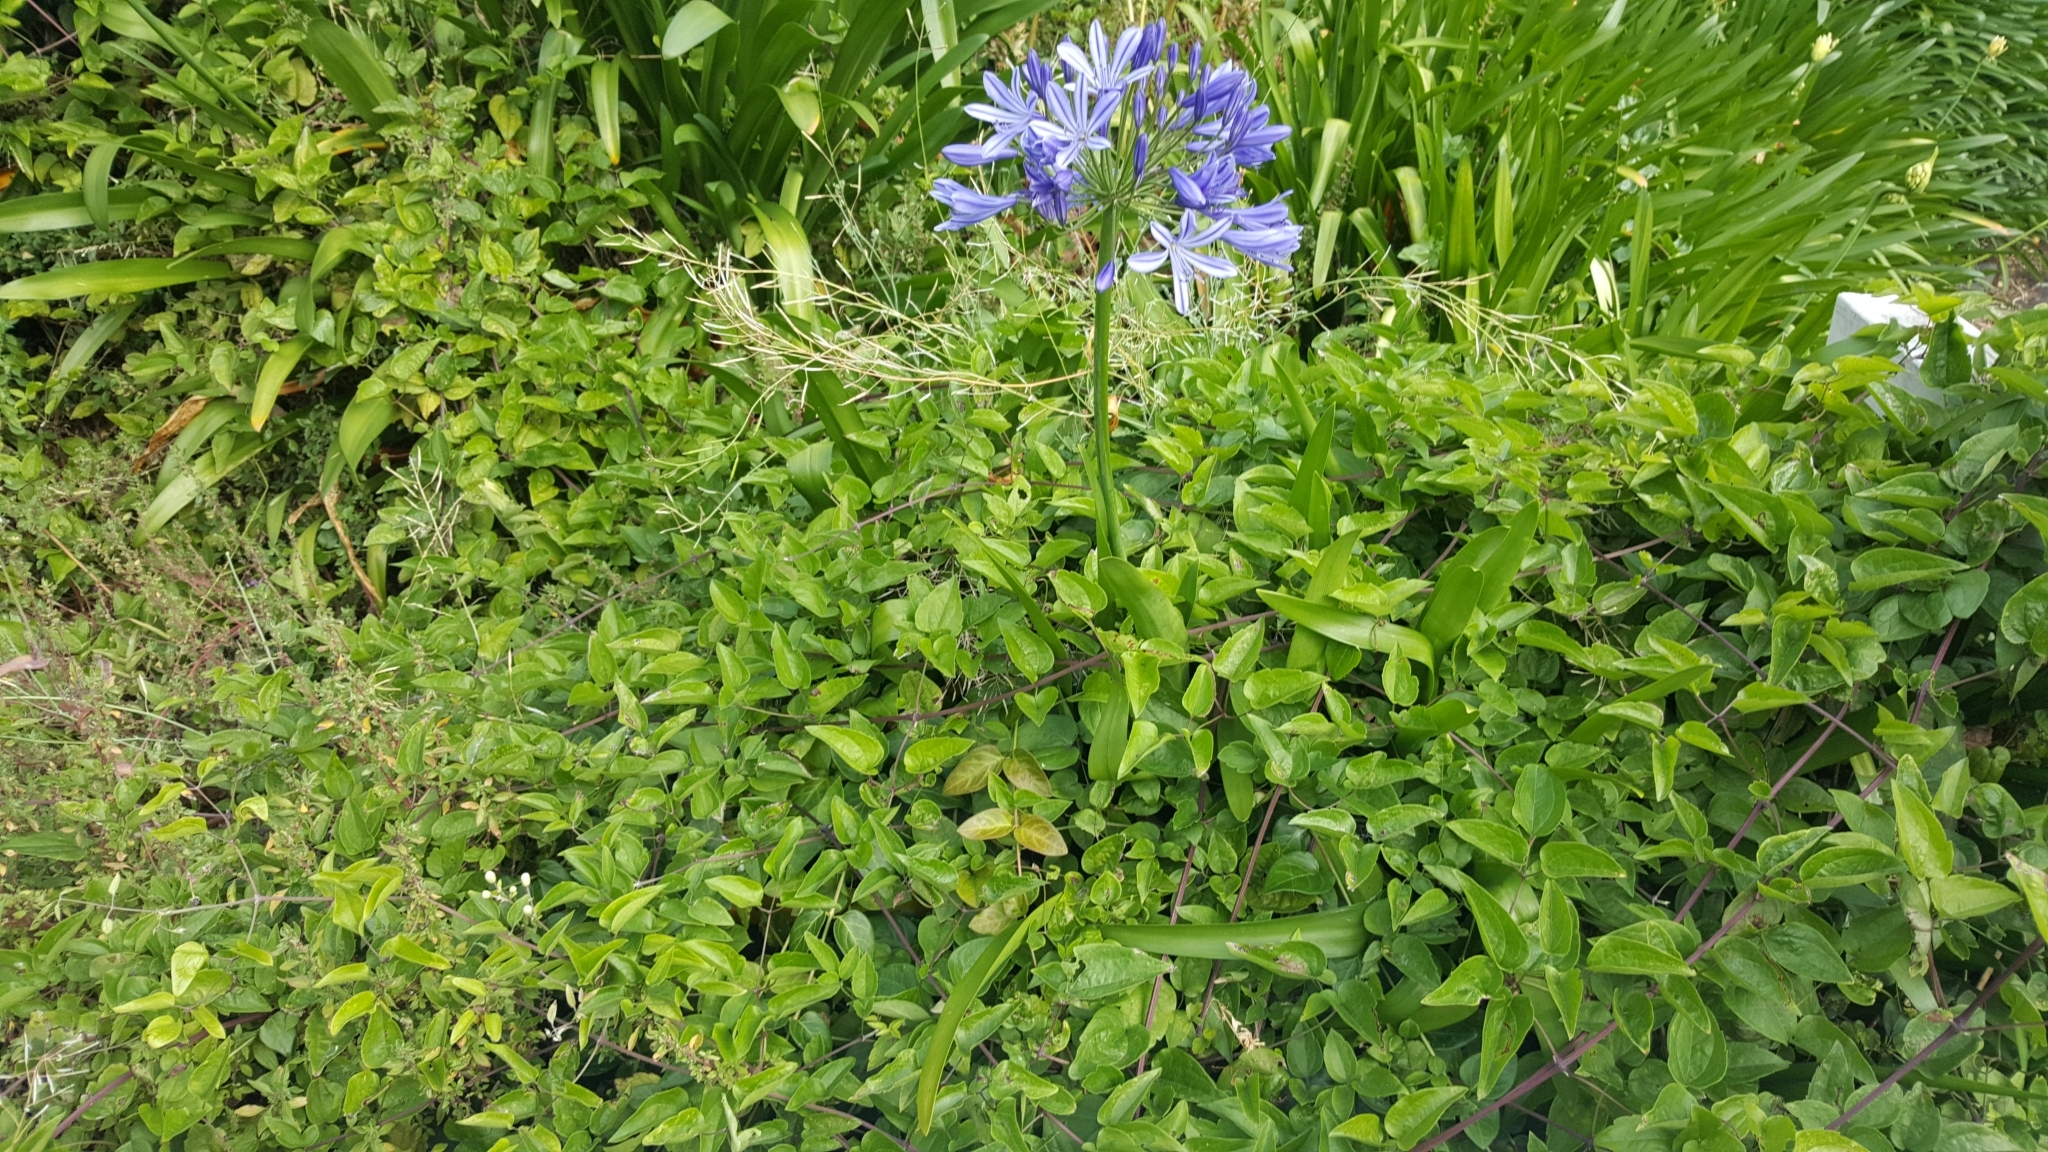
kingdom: Plantae
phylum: Tracheophyta
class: Magnoliopsida
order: Ranunculales
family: Ranunculaceae
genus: Clematis
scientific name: Clematis vitalba
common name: Evergreen clematis
